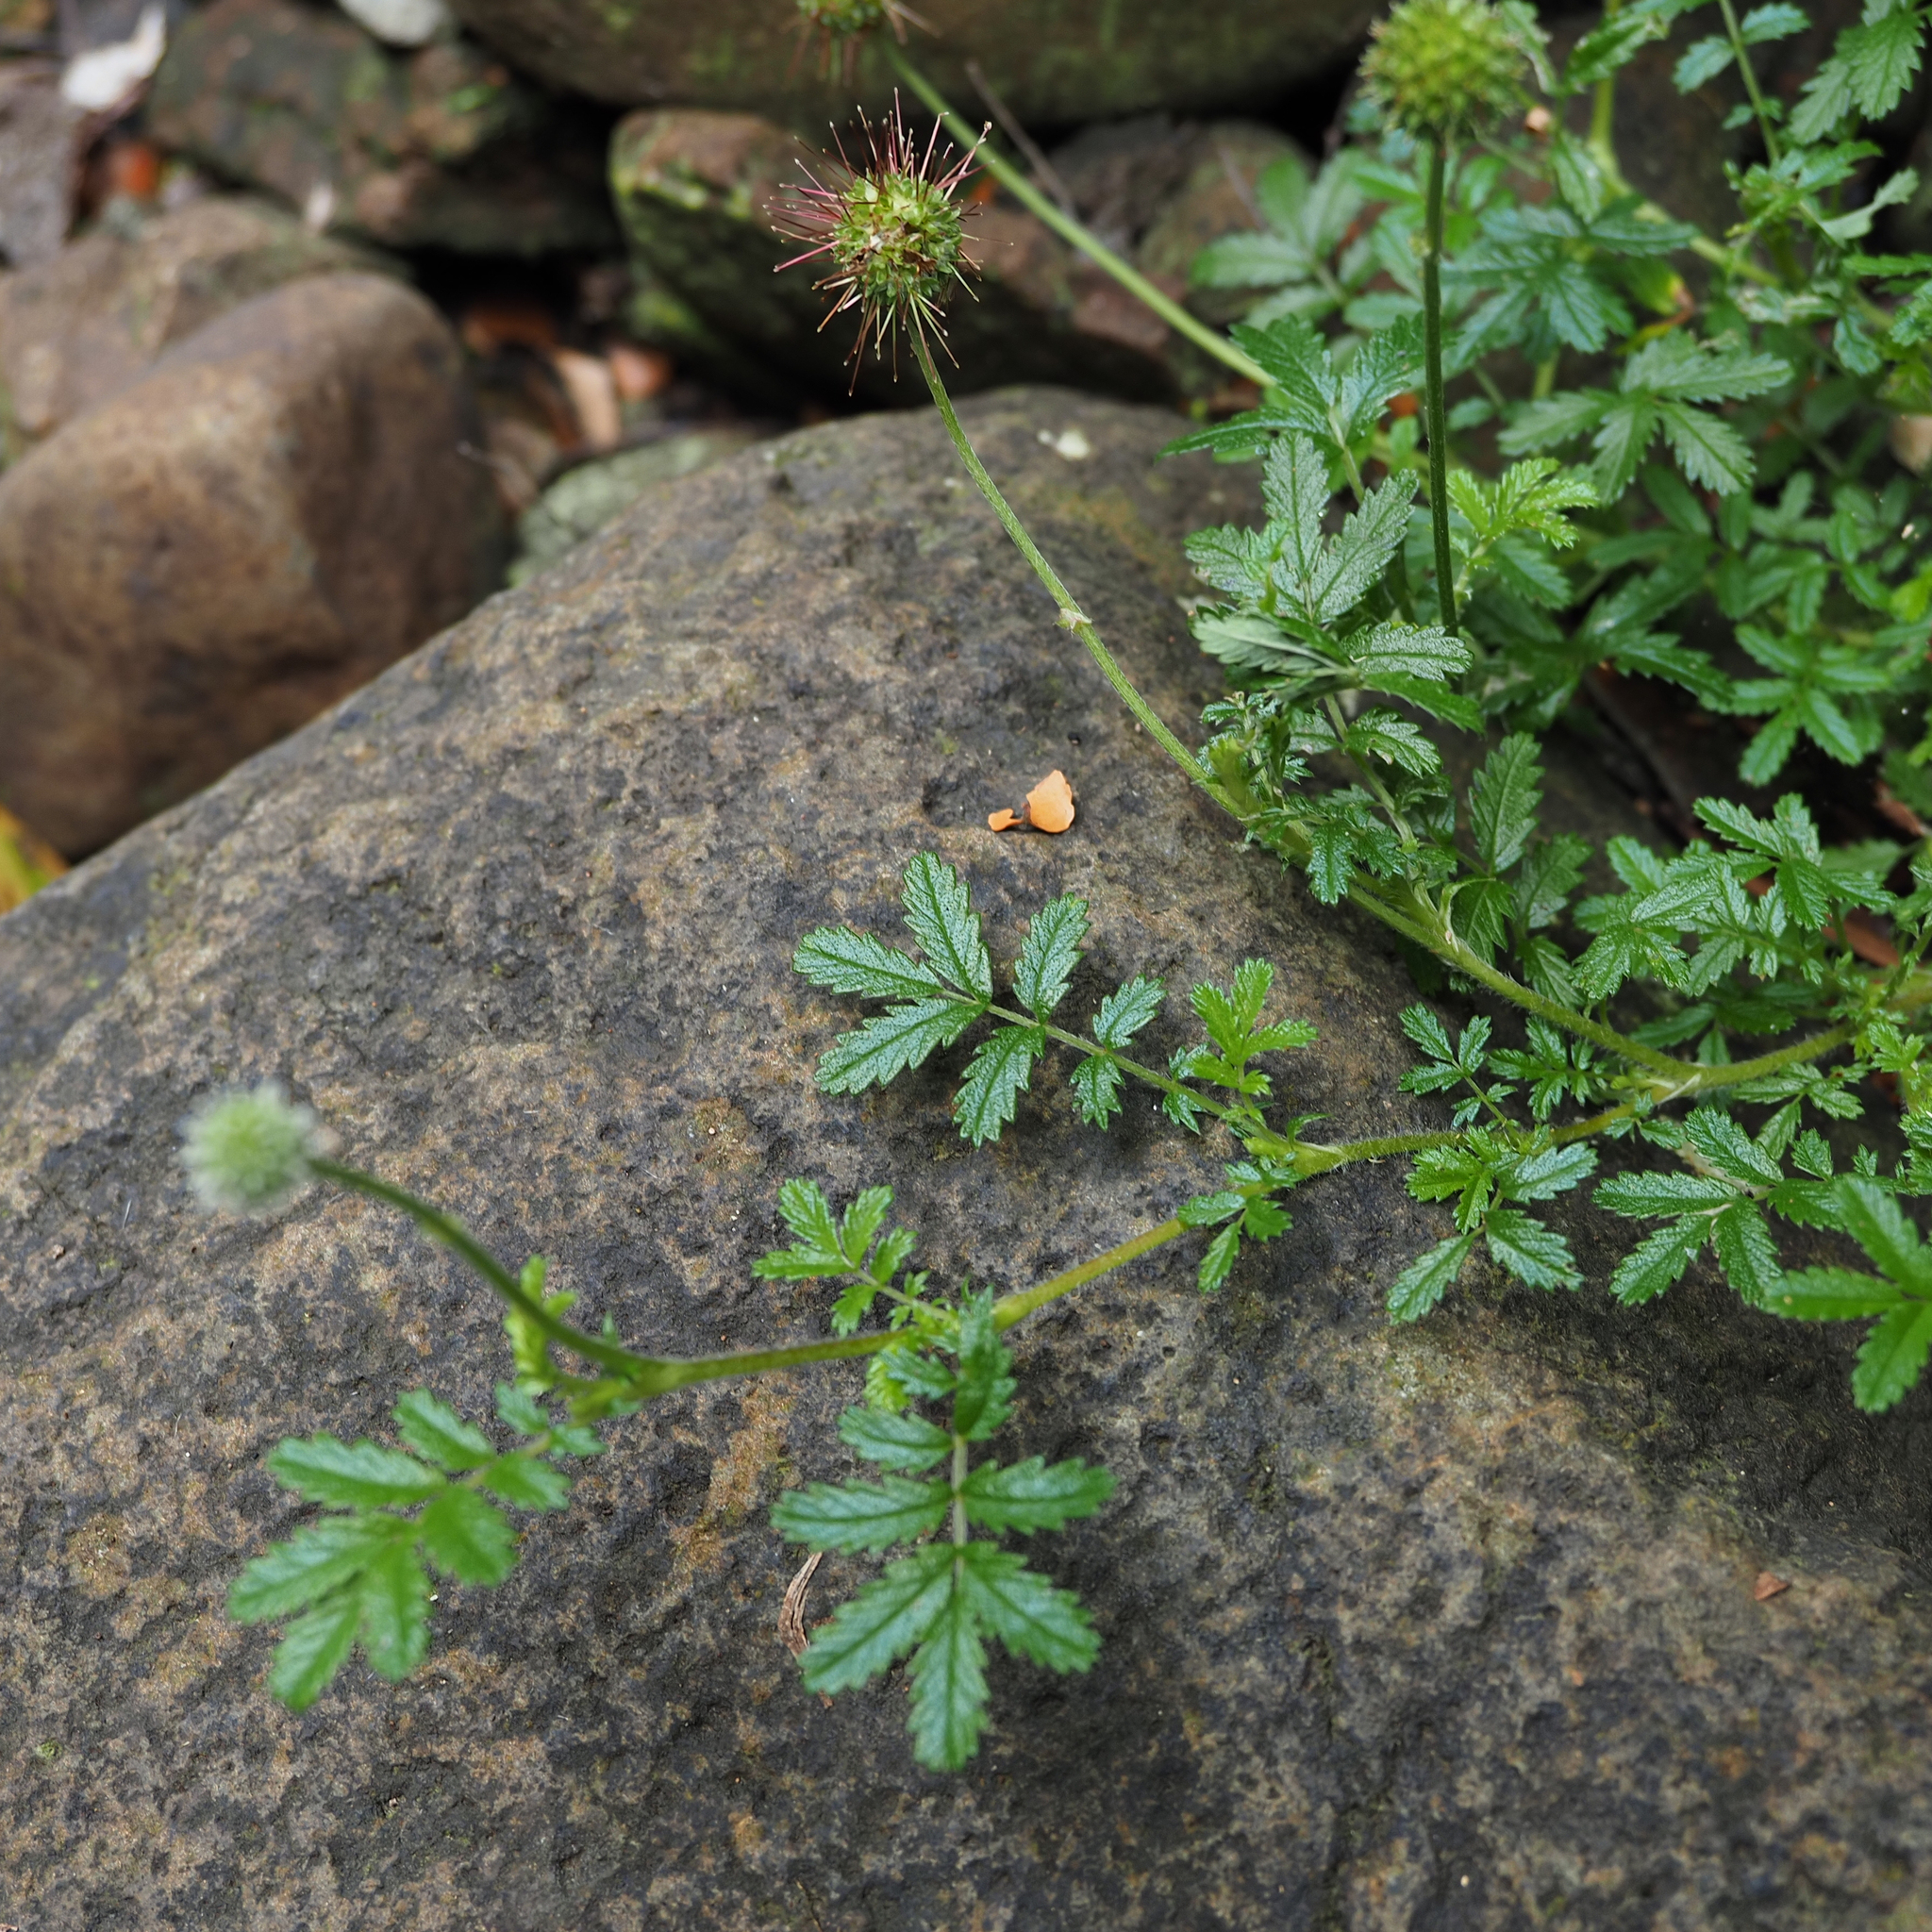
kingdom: Plantae
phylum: Tracheophyta
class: Magnoliopsida
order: Rosales
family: Rosaceae
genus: Acaena
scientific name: Acaena novae-zelandiae
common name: Pirri-pirri-bur
